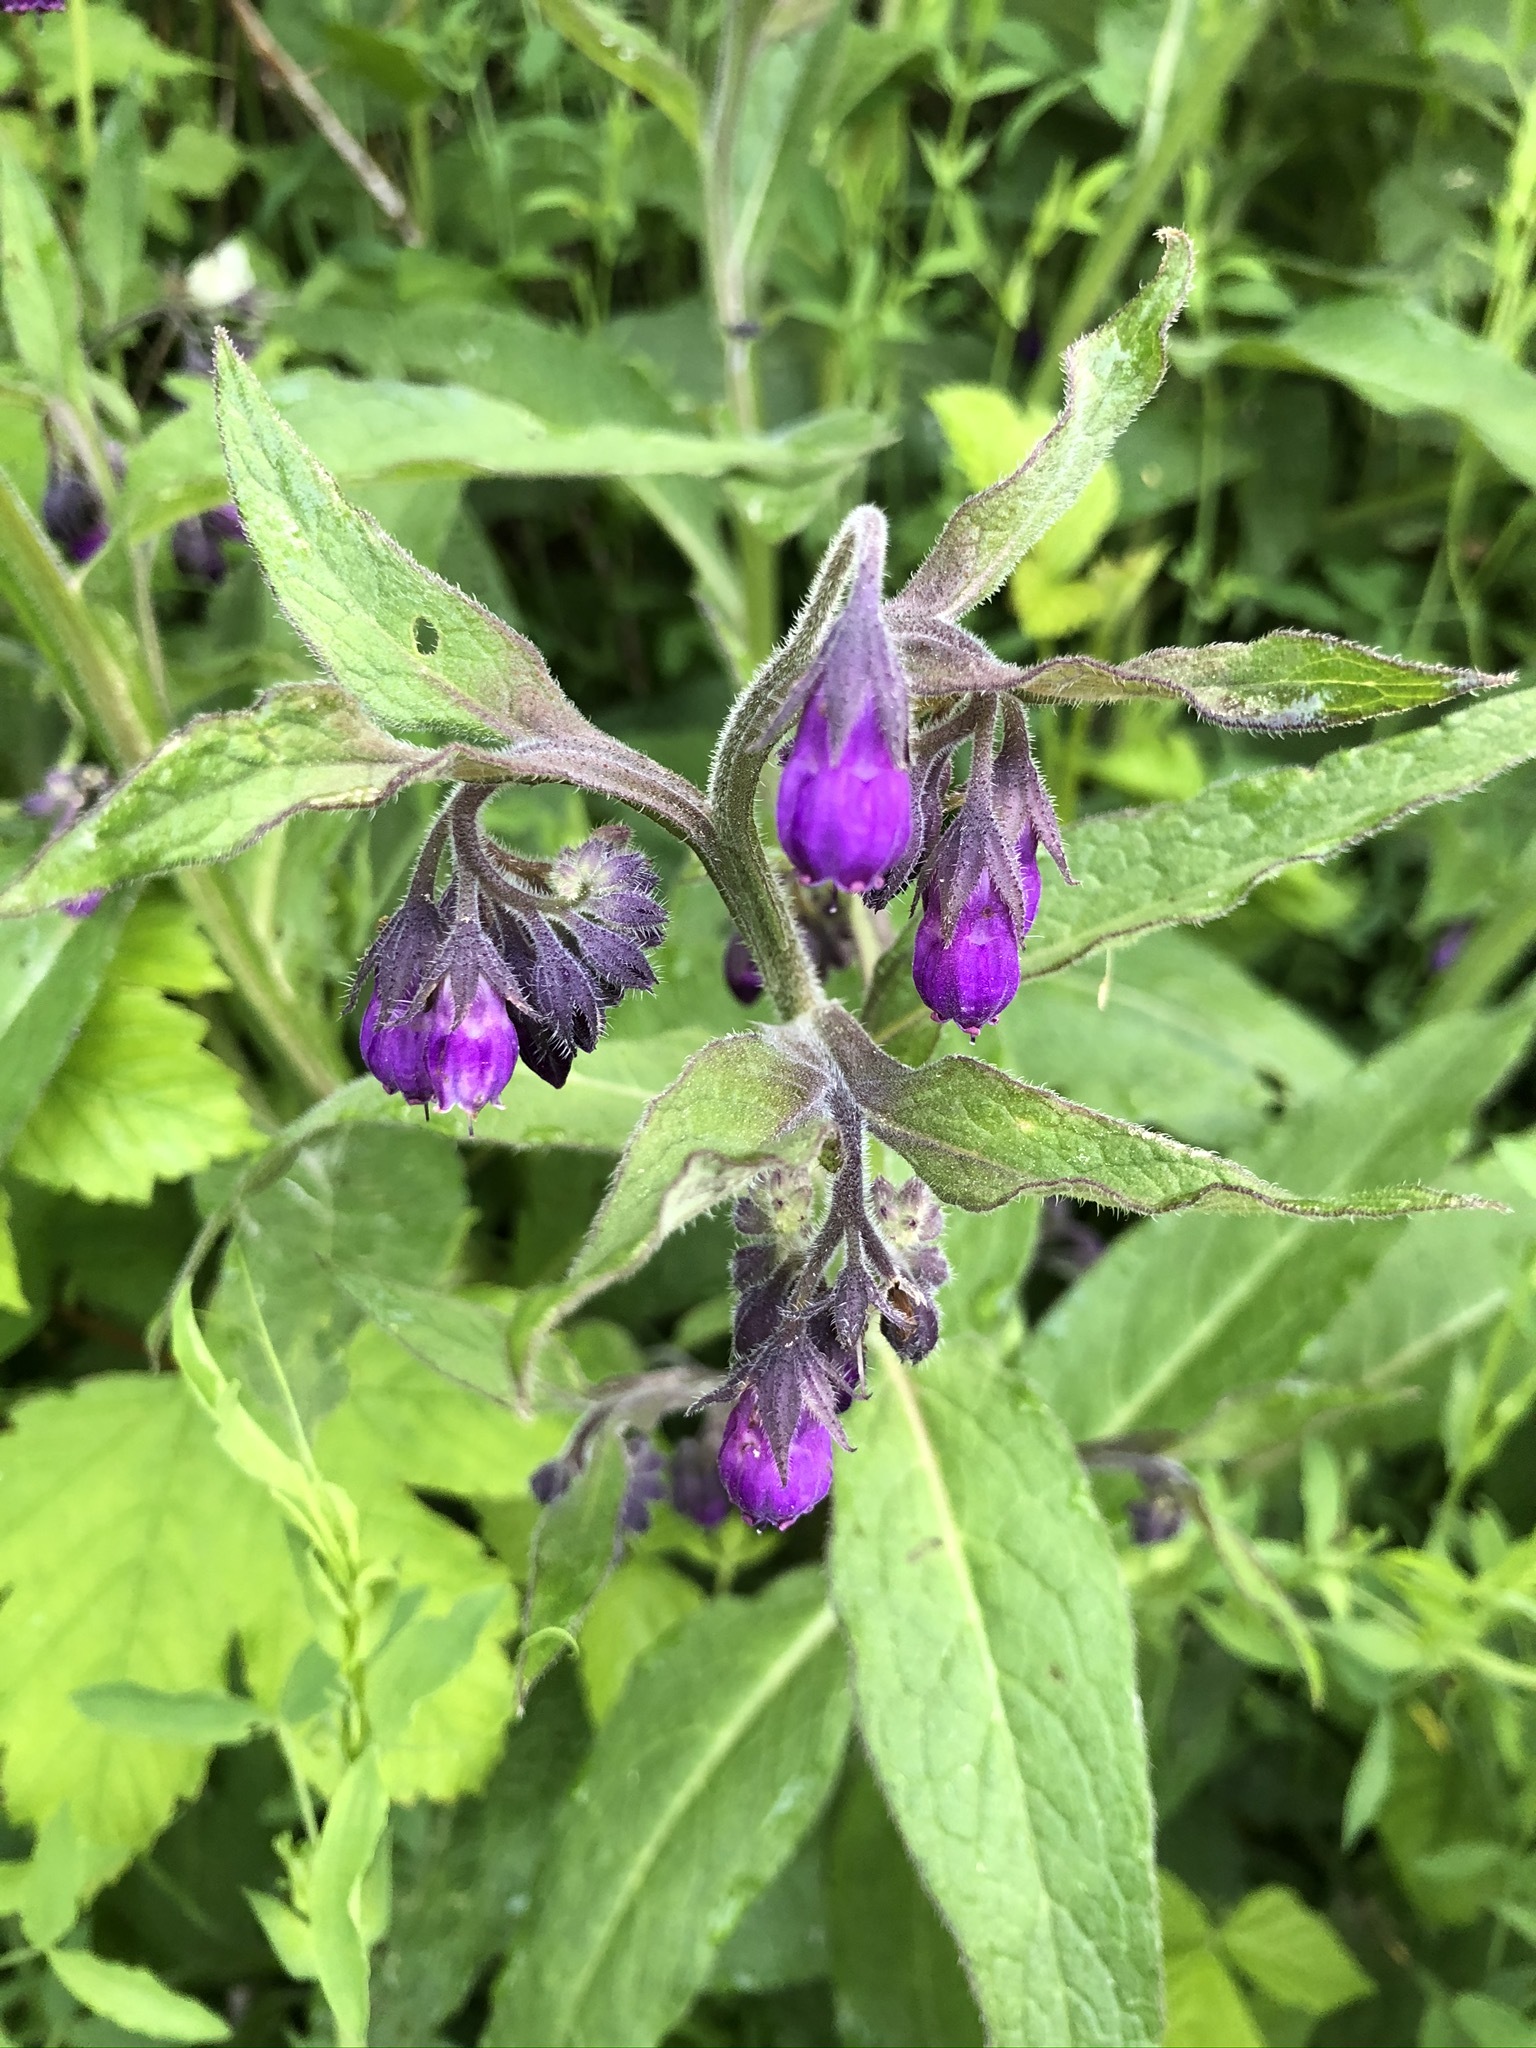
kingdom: Plantae
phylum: Tracheophyta
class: Magnoliopsida
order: Boraginales
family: Boraginaceae
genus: Symphytum
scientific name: Symphytum officinale
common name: Common comfrey
